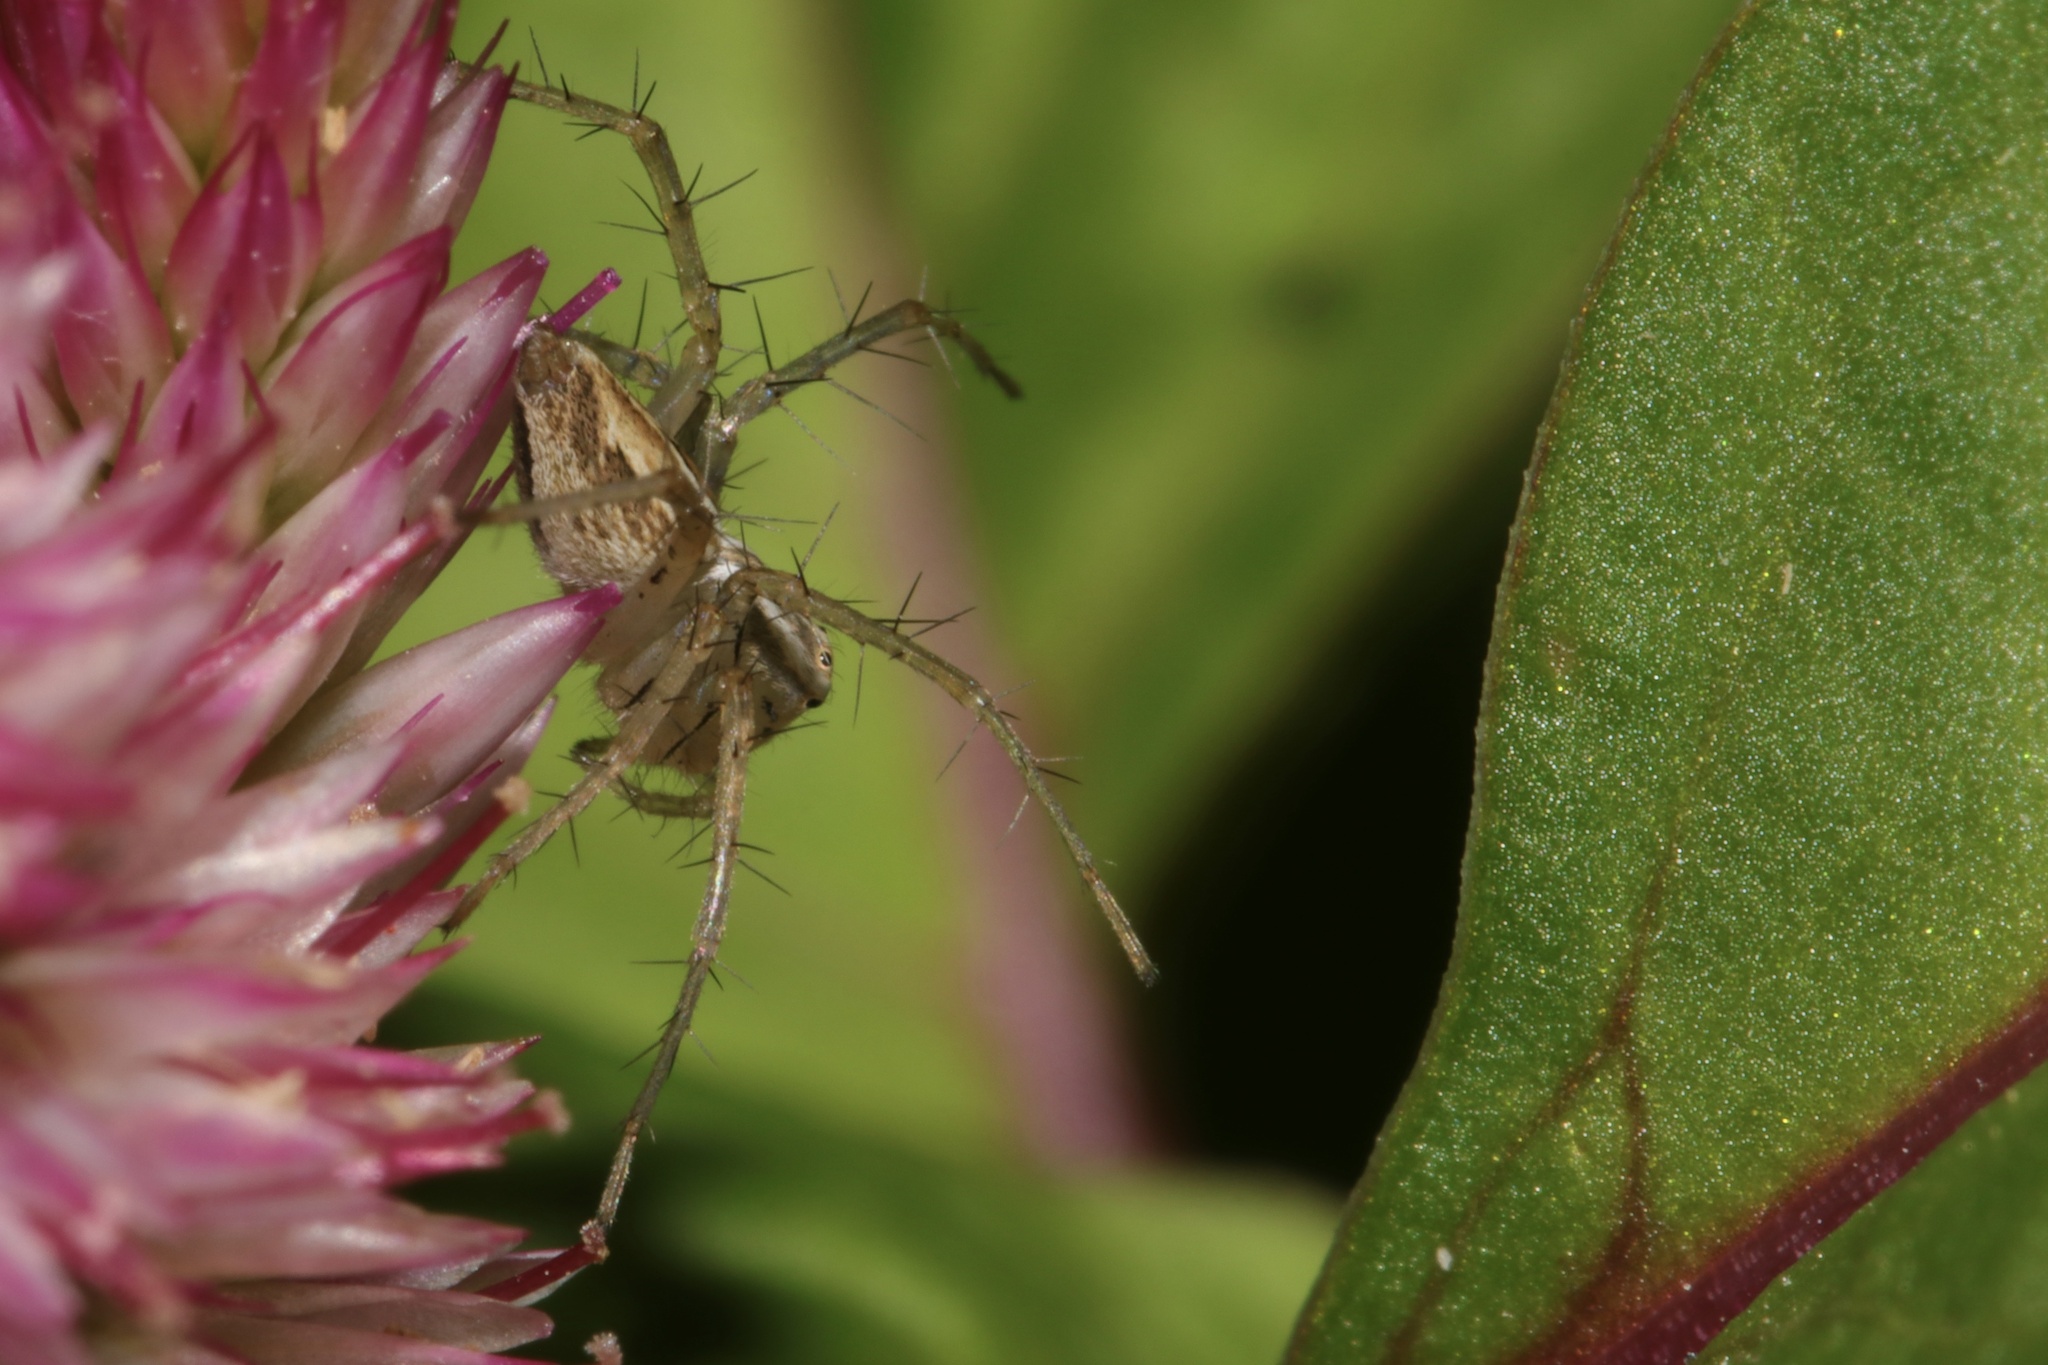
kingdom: Animalia
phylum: Arthropoda
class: Arachnida
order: Araneae
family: Oxyopidae
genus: Oxyopes
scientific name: Oxyopes salticus
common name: Lynx spiders
